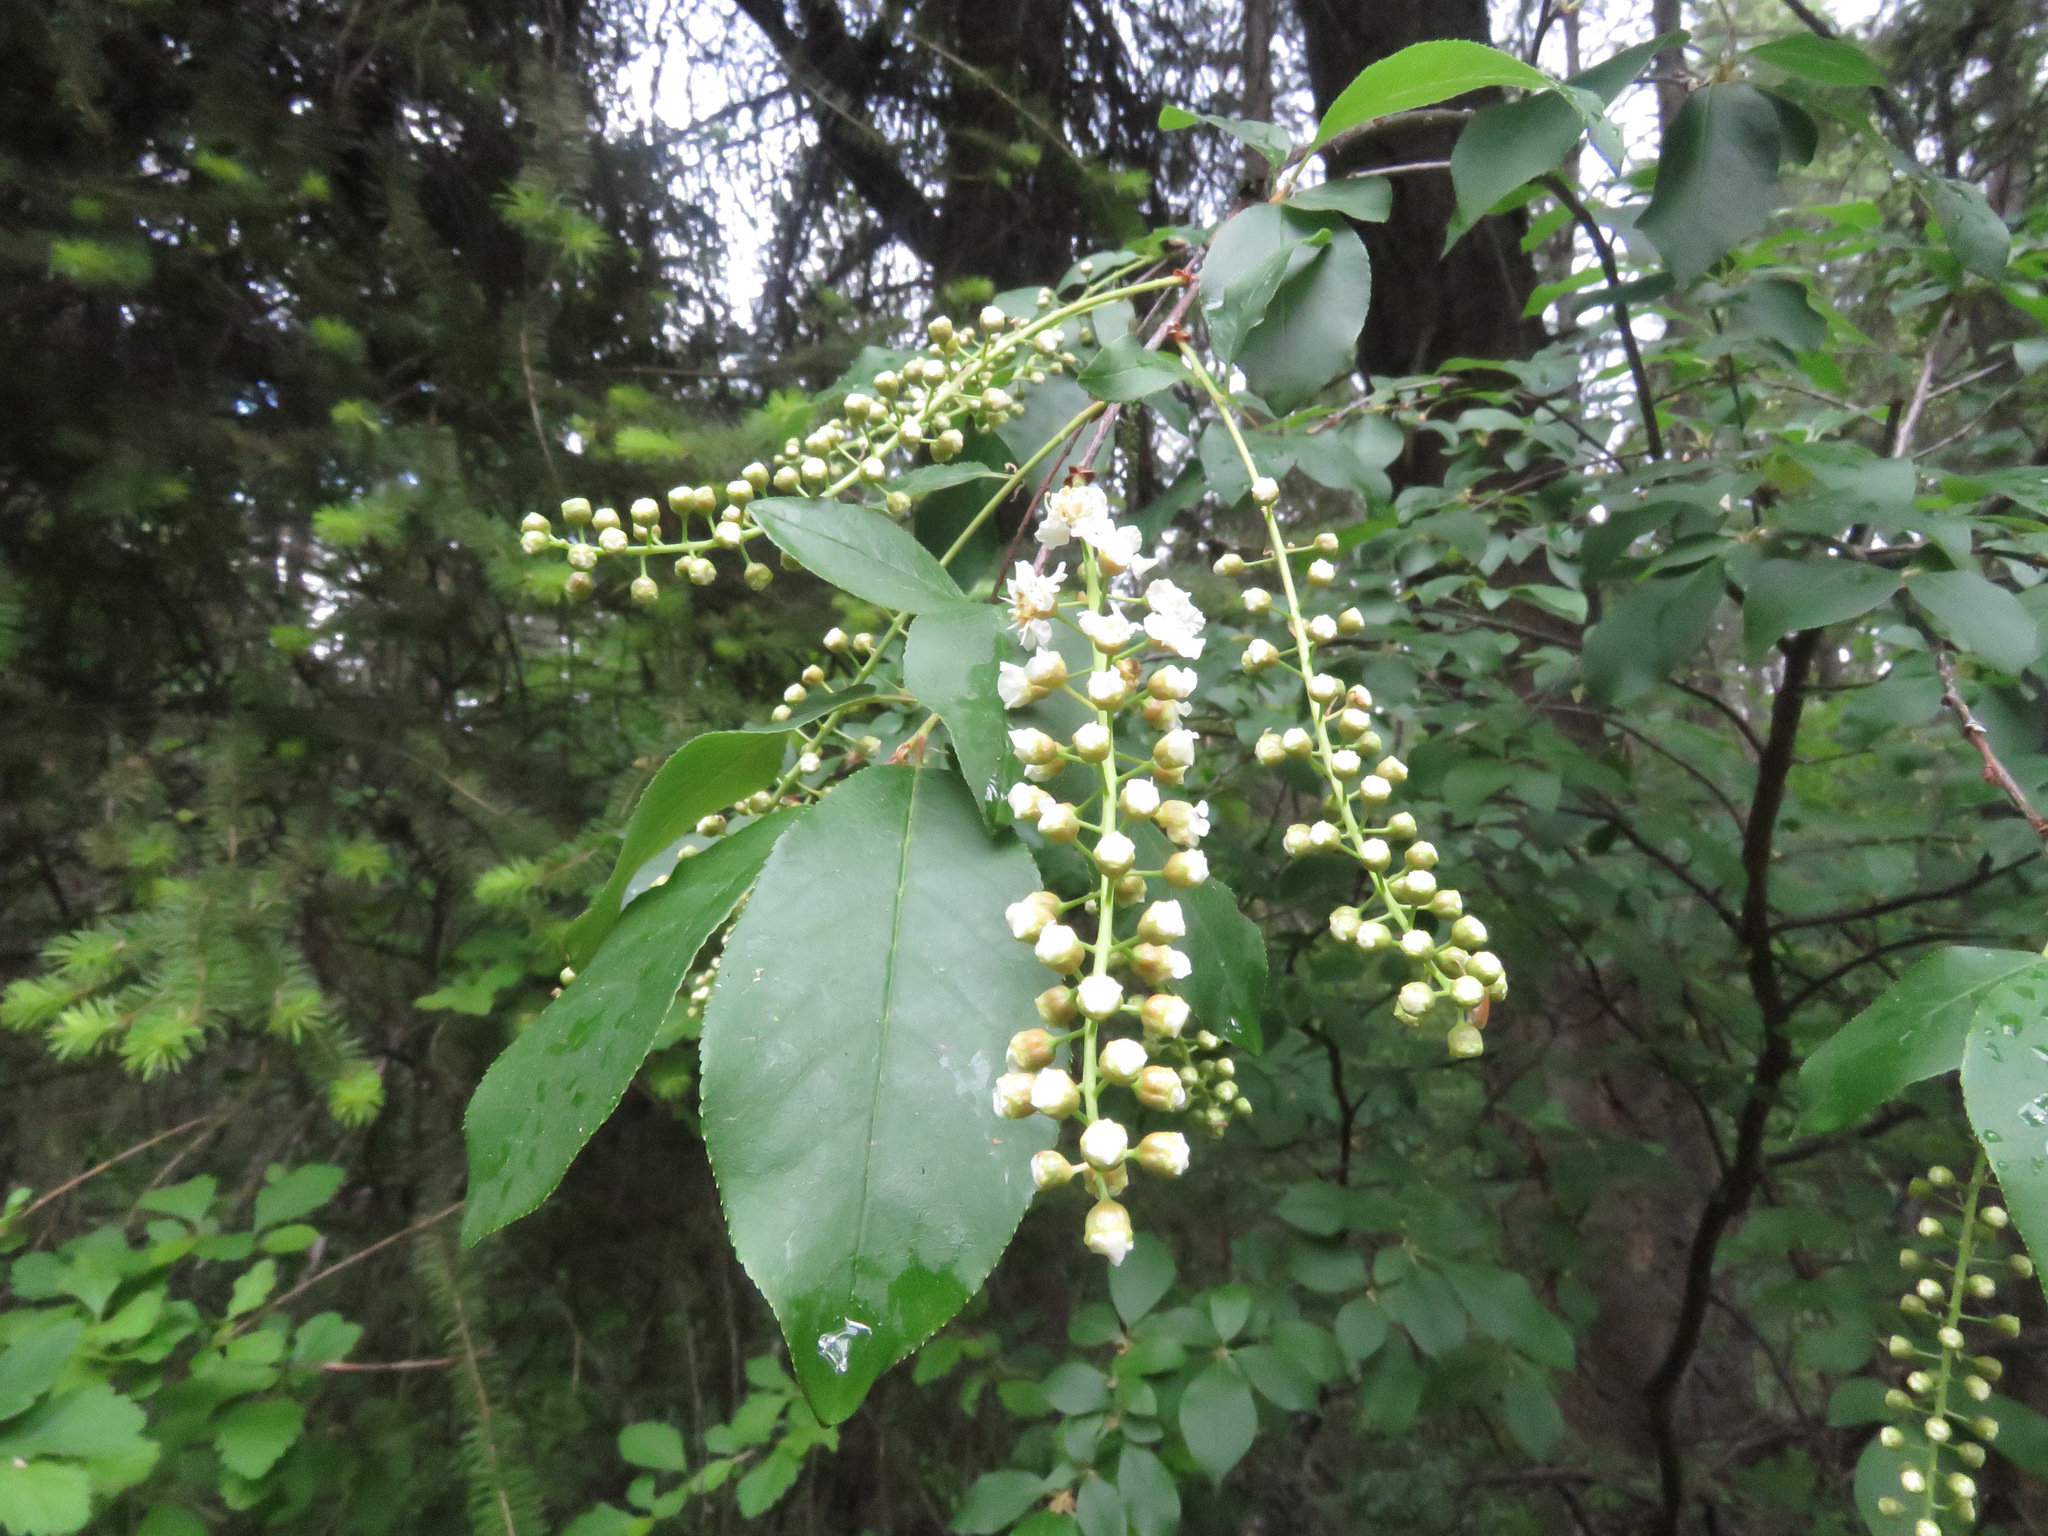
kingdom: Plantae
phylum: Tracheophyta
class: Magnoliopsida
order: Rosales
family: Rosaceae
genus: Prunus
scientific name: Prunus virginiana
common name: Chokecherry
